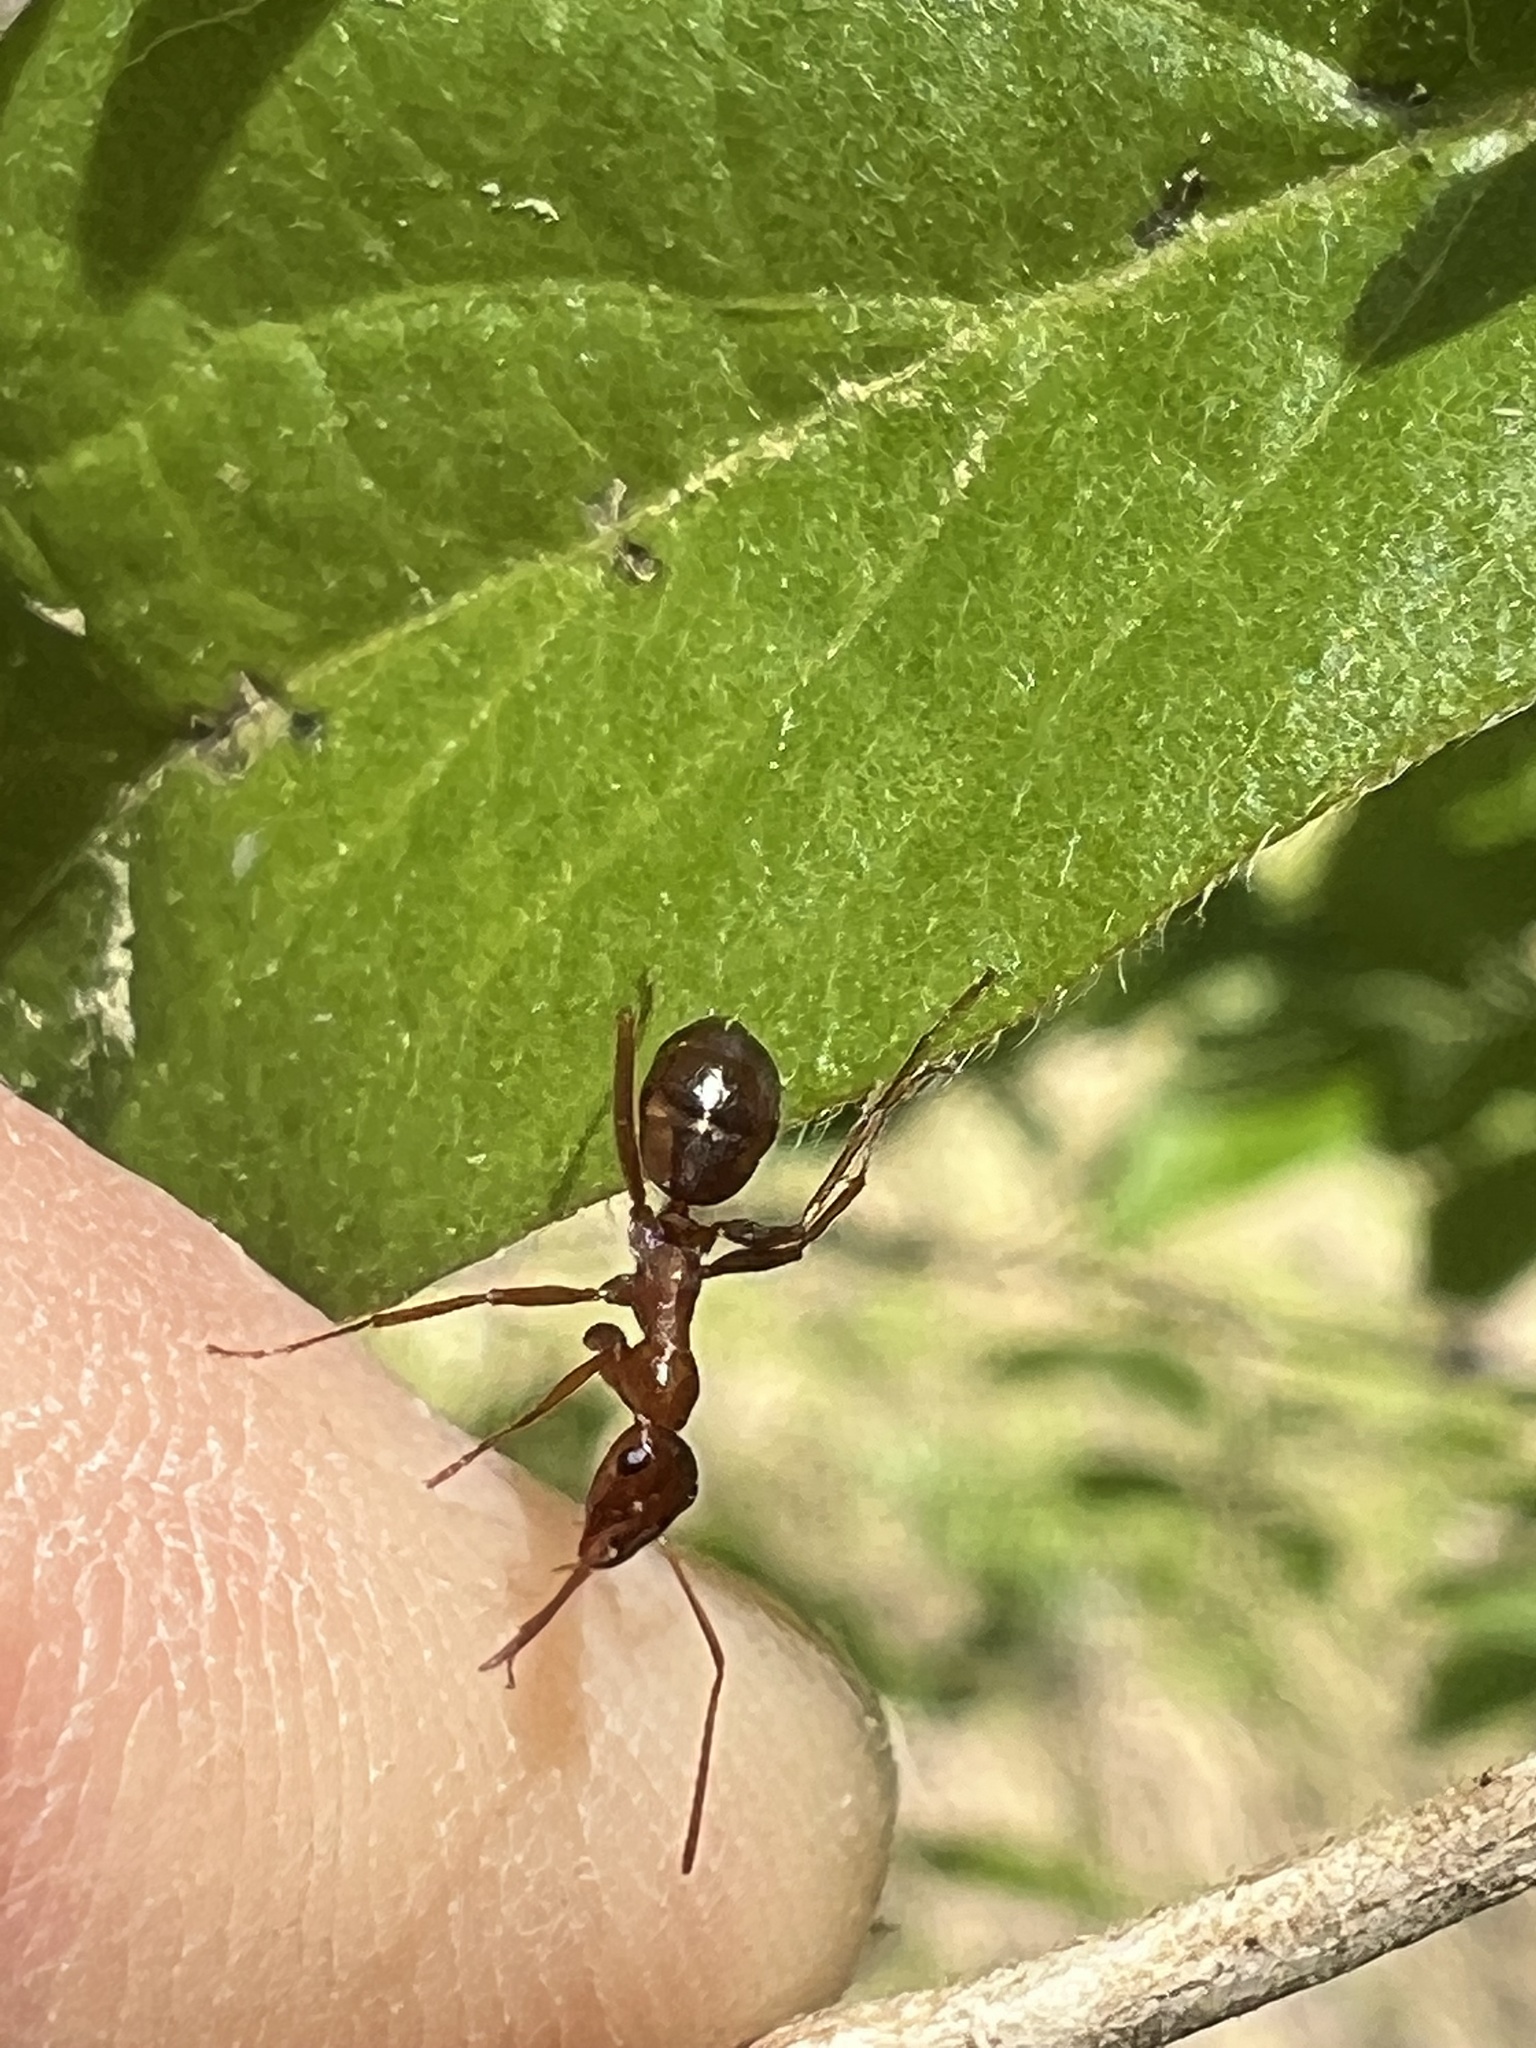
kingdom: Animalia
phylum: Arthropoda
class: Insecta
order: Hymenoptera
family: Formicidae
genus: Formica
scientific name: Formica pallidefulva
